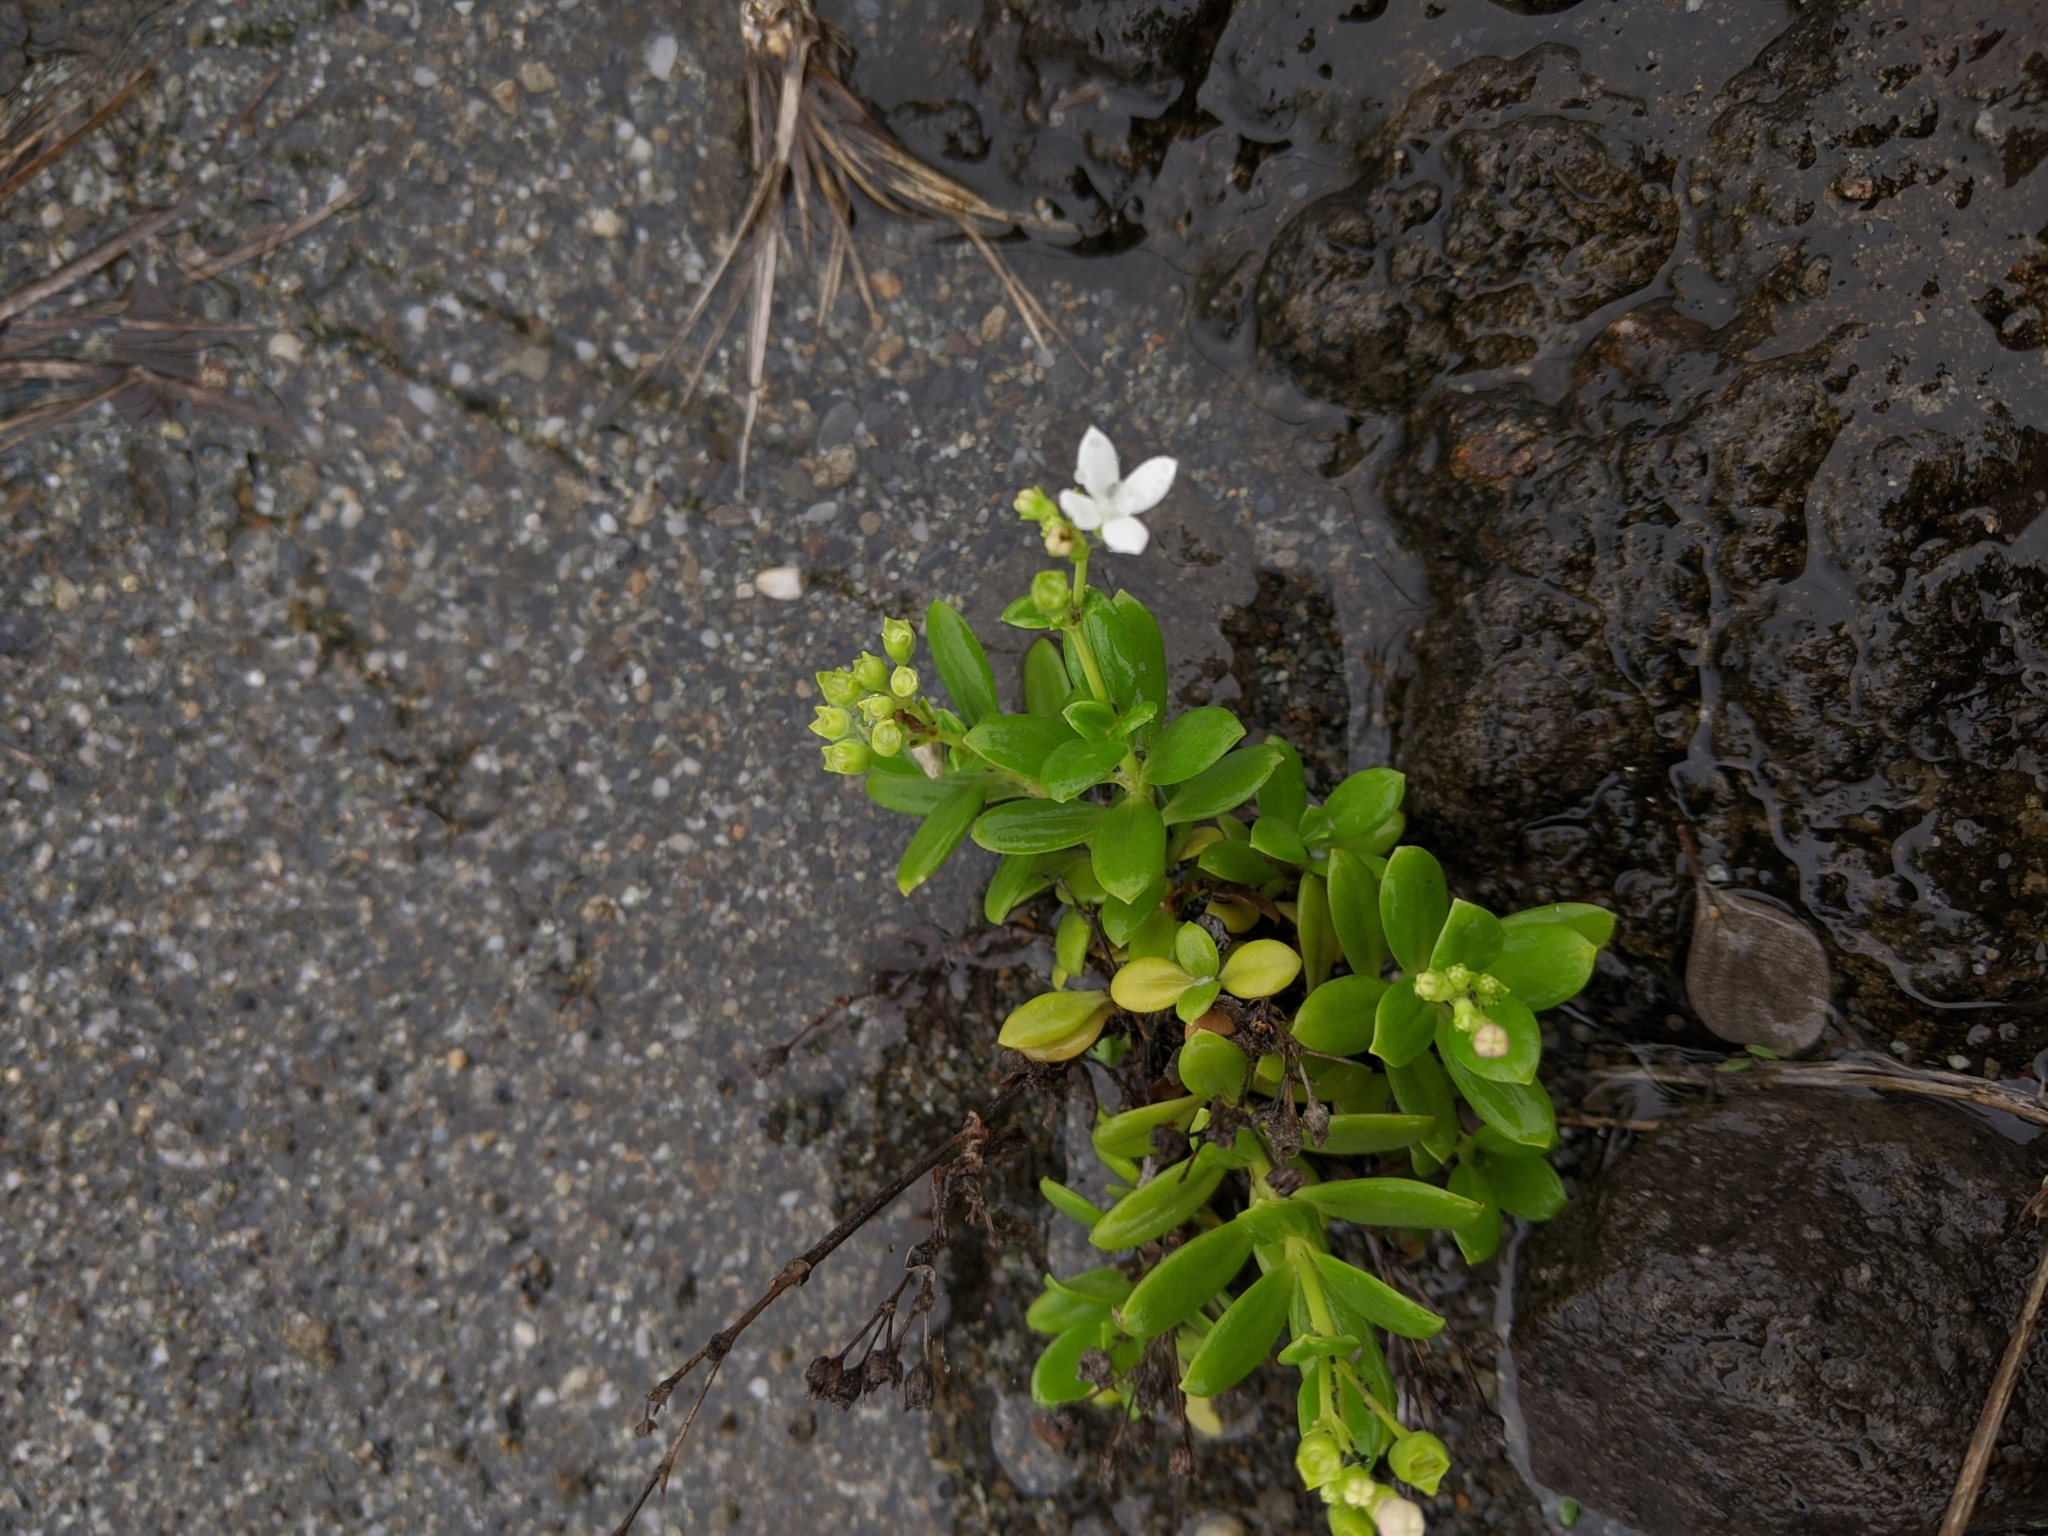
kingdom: Plantae
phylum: Tracheophyta
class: Magnoliopsida
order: Gentianales
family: Rubiaceae
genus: Leptopetalum
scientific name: Leptopetalum strigulosum
